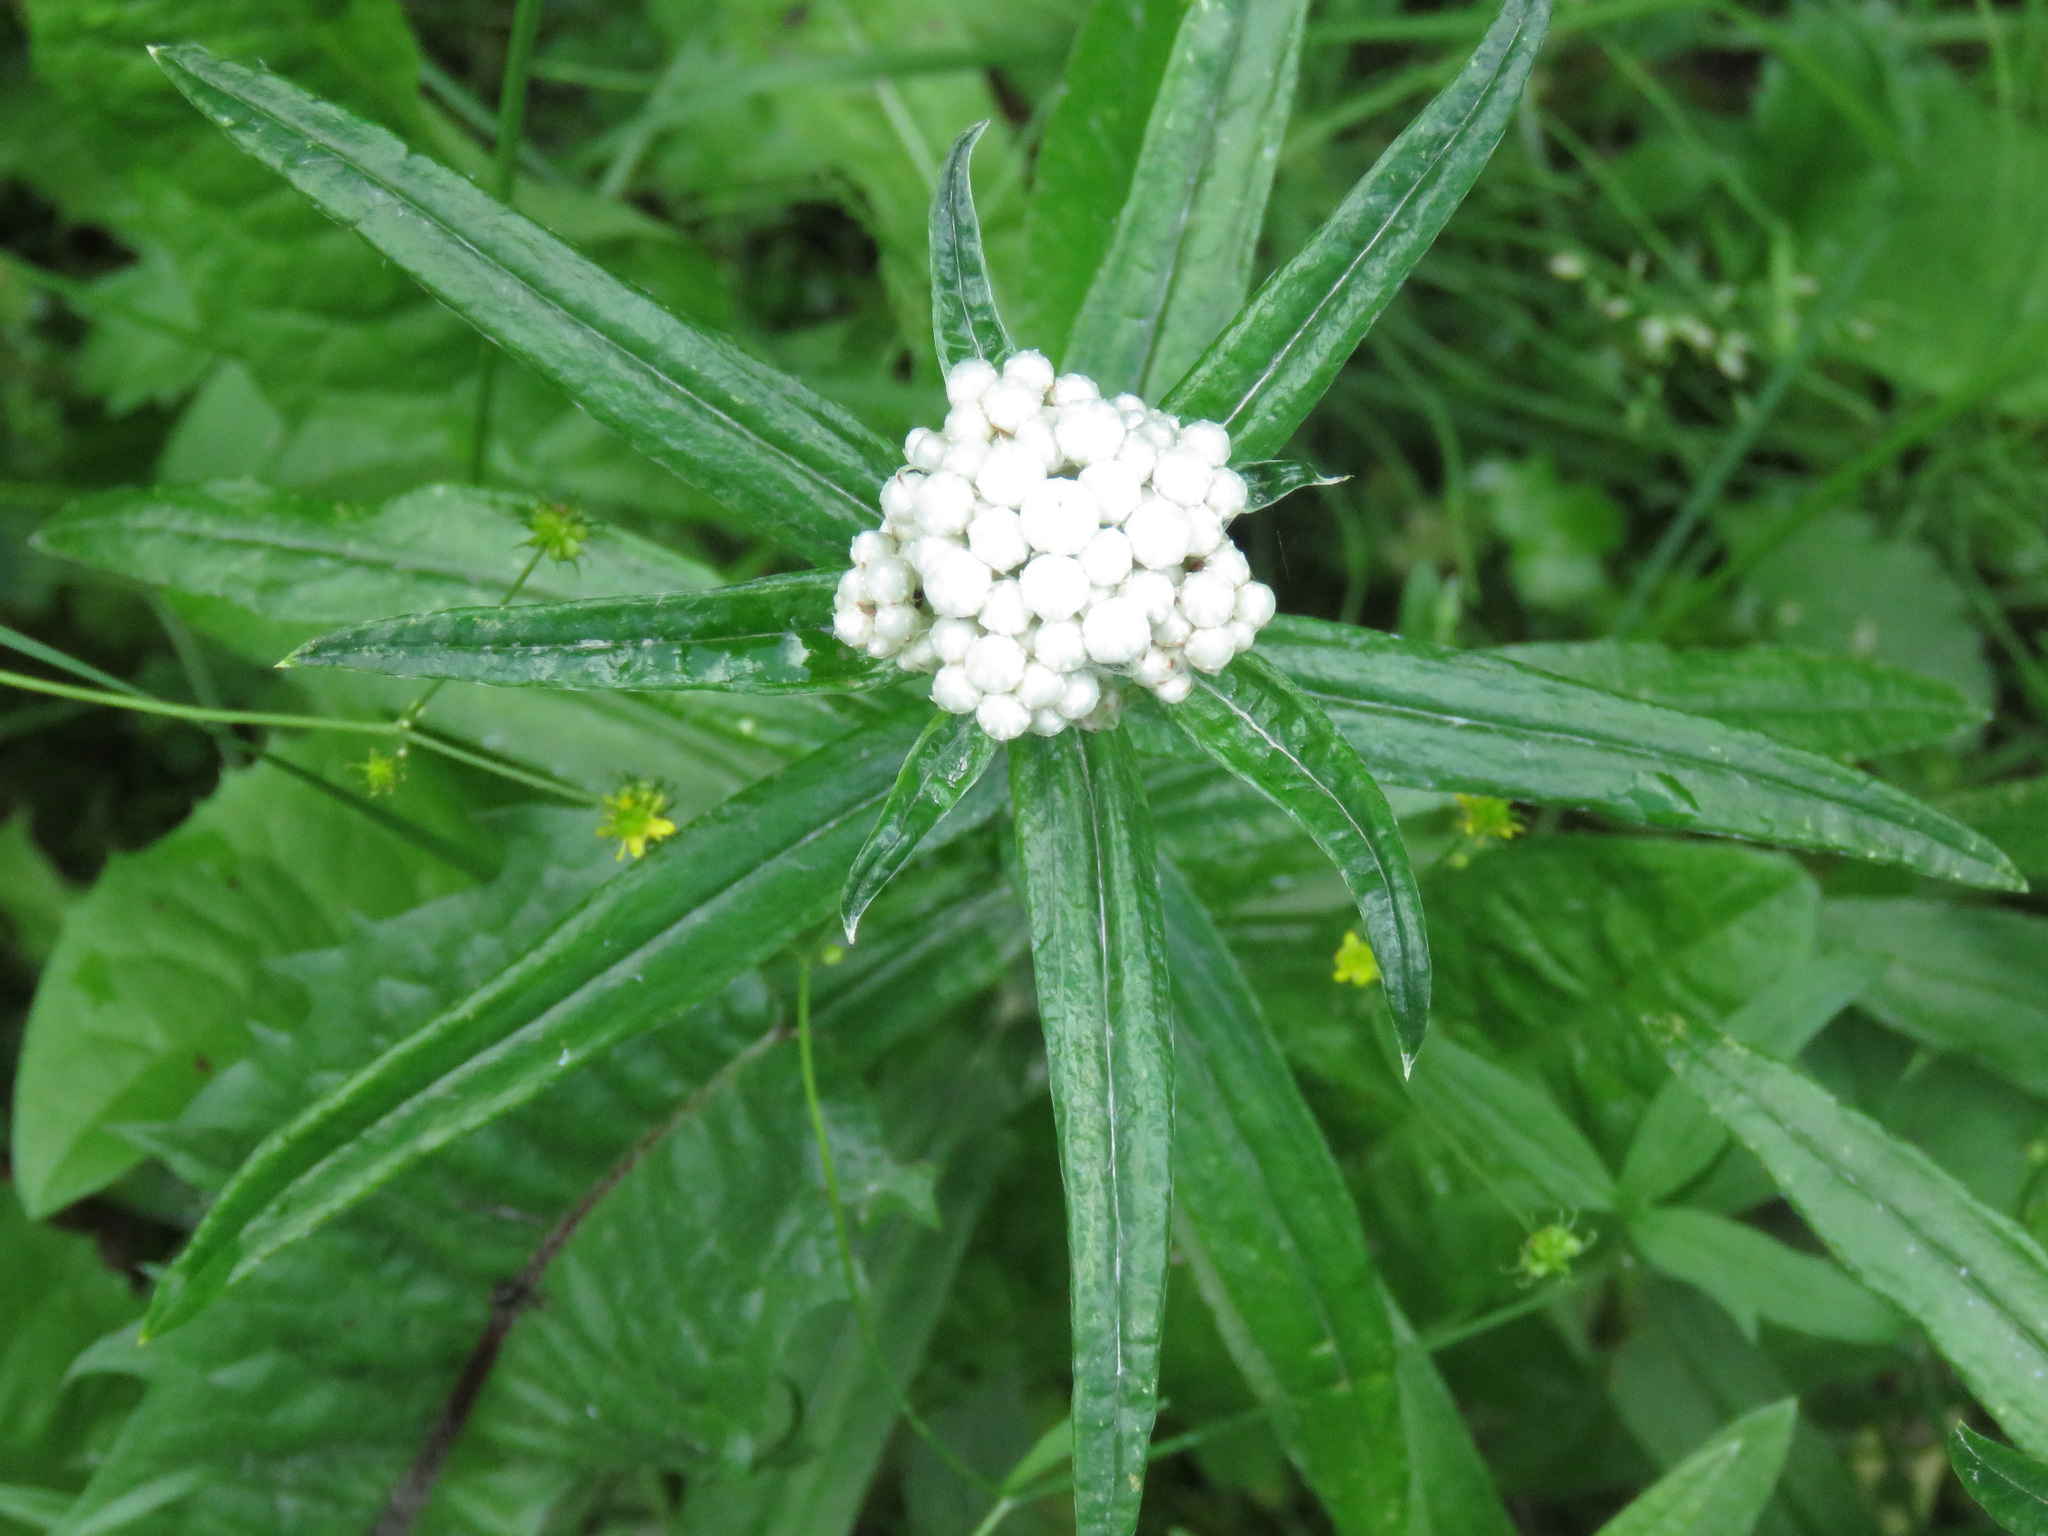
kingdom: Plantae
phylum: Tracheophyta
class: Magnoliopsida
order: Asterales
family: Asteraceae
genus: Anaphalis
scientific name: Anaphalis margaritacea
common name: Pearly everlasting
